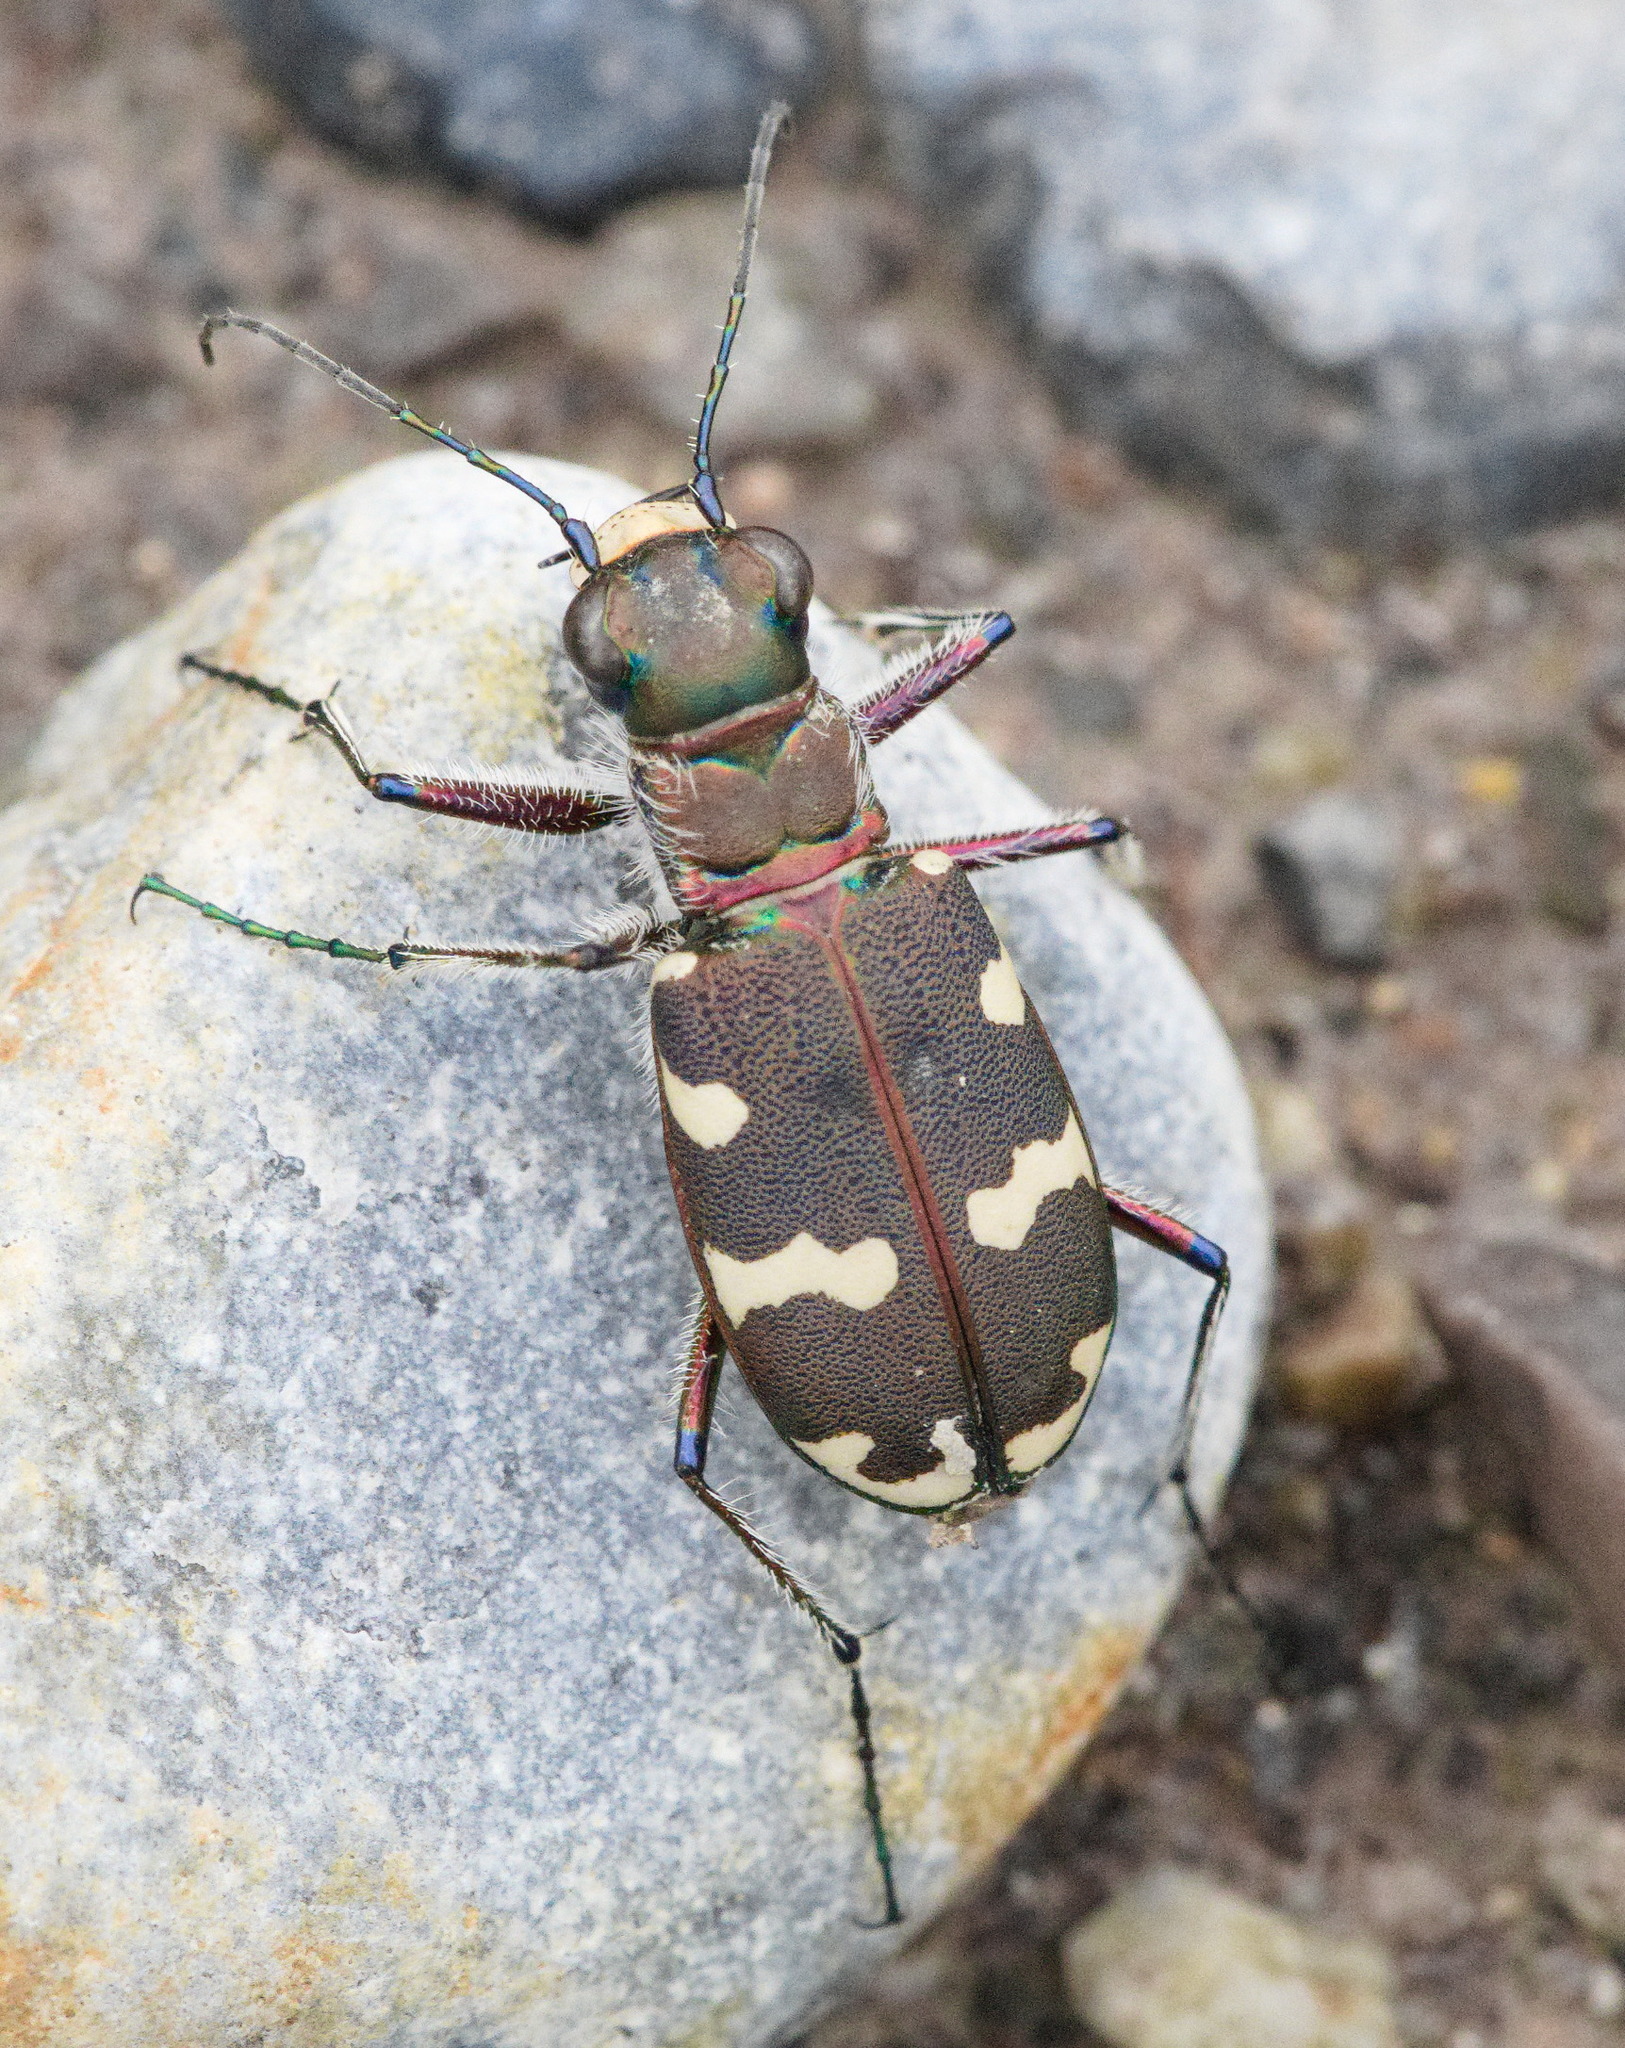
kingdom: Animalia
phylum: Arthropoda
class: Insecta
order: Coleoptera
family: Carabidae
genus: Cicindela
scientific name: Cicindela hybrida
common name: Northern dune tiger beetle
